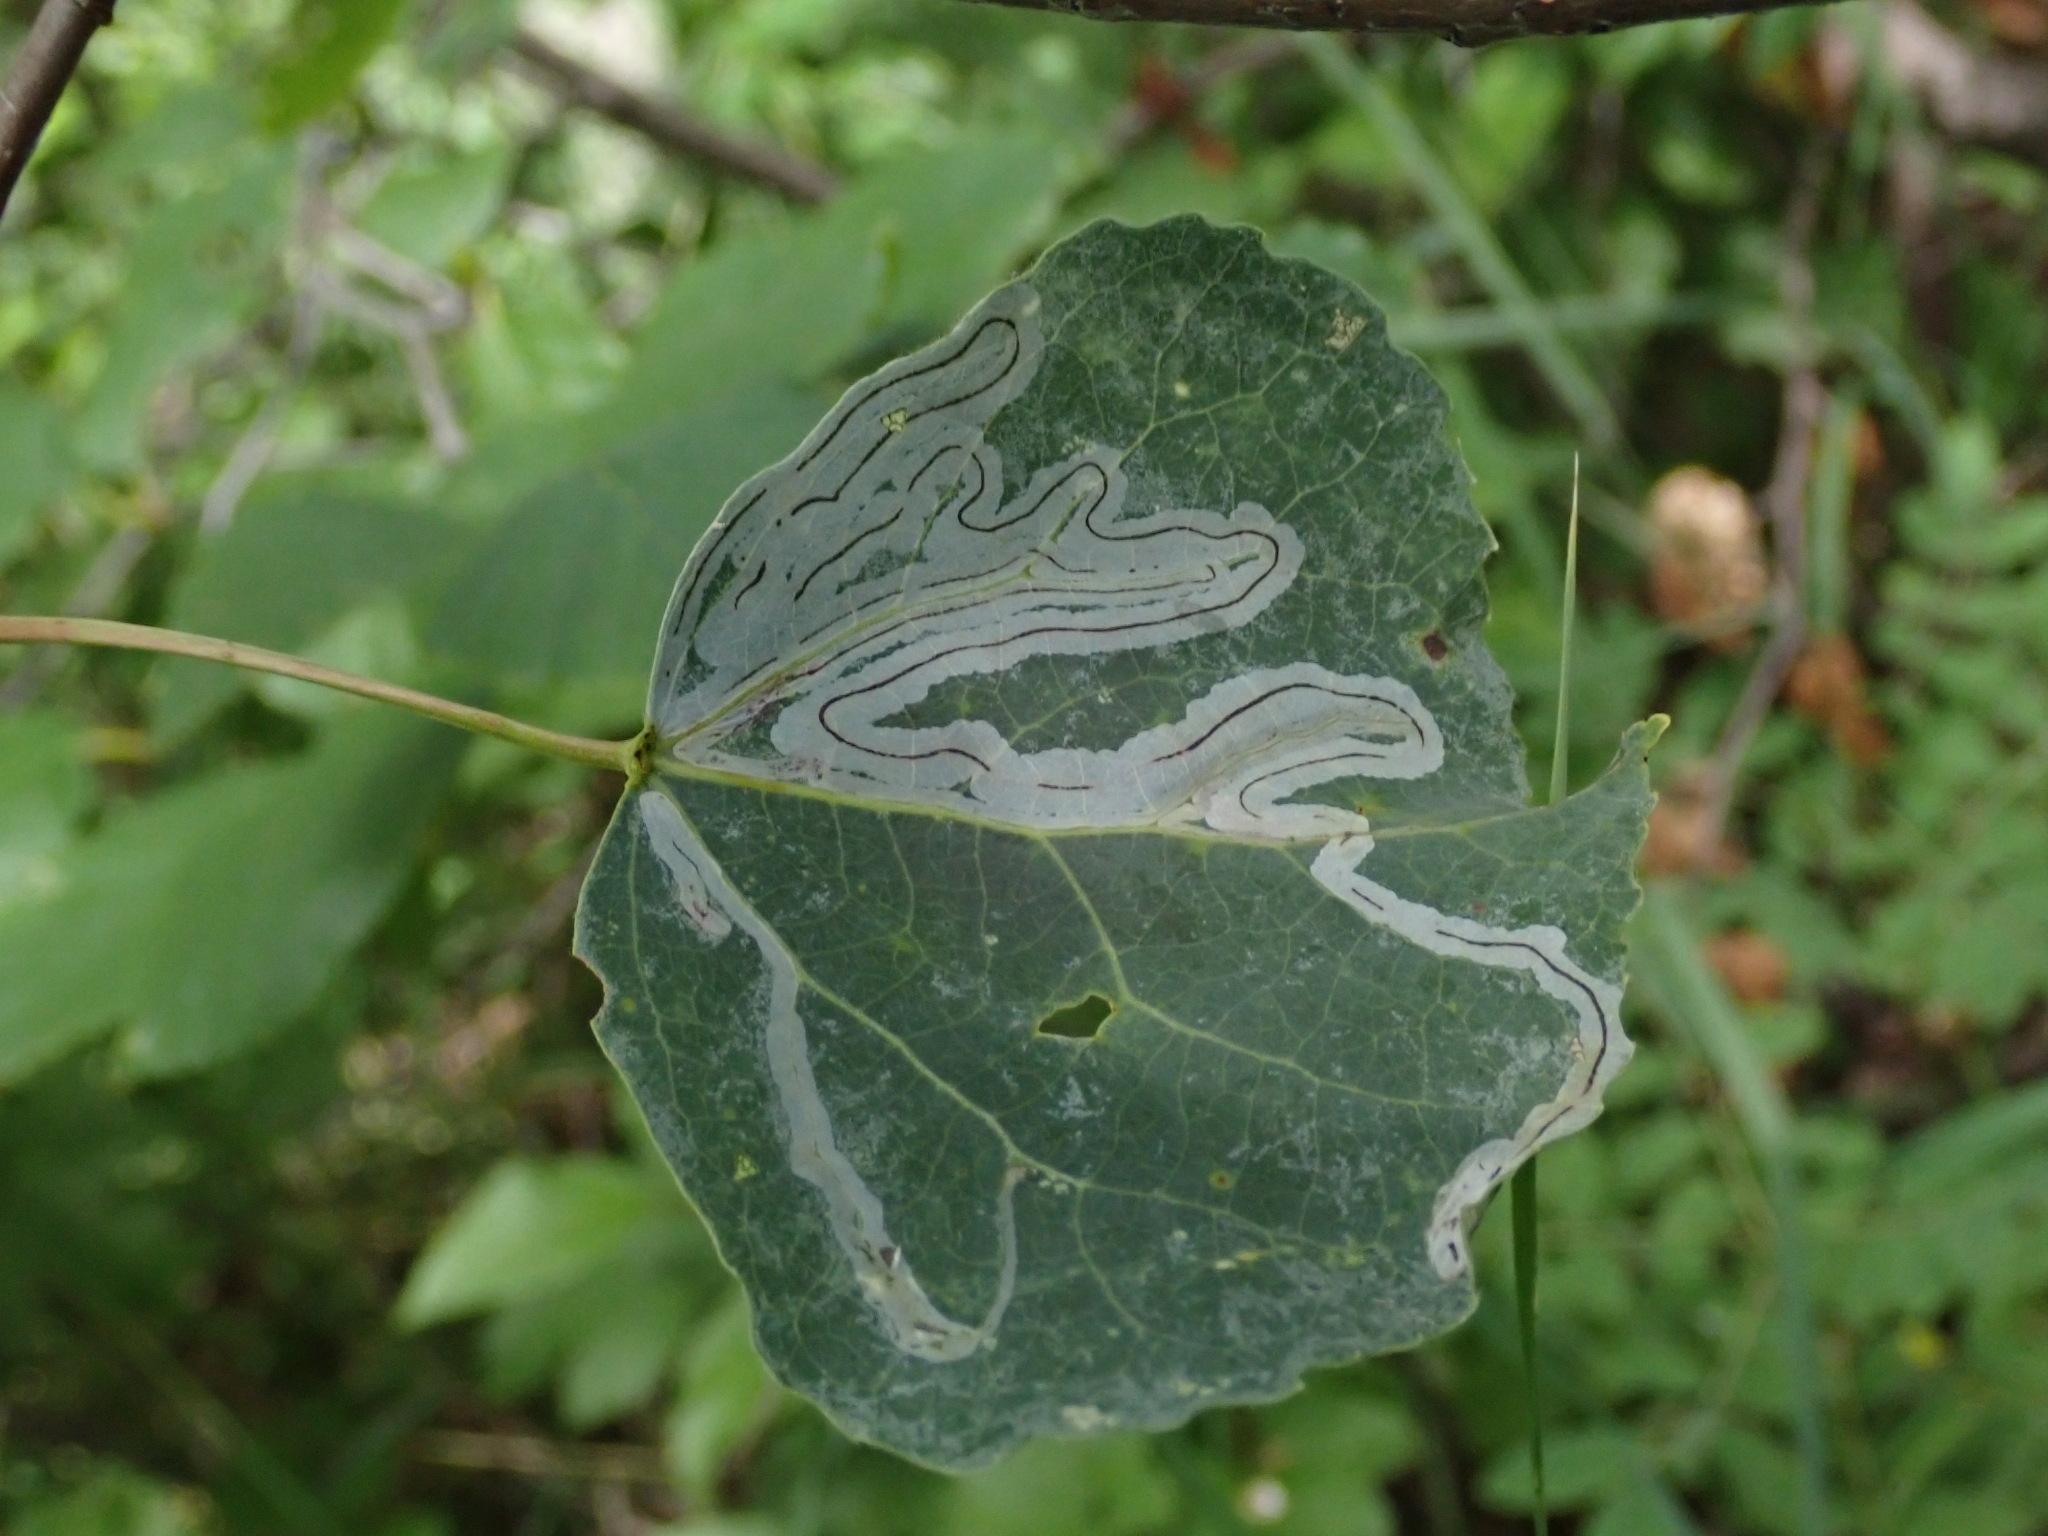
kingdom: Animalia
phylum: Arthropoda
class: Insecta
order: Lepidoptera
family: Gracillariidae
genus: Phyllocnistis
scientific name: Phyllocnistis populiella
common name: Aspen serpentine leafminer moth
